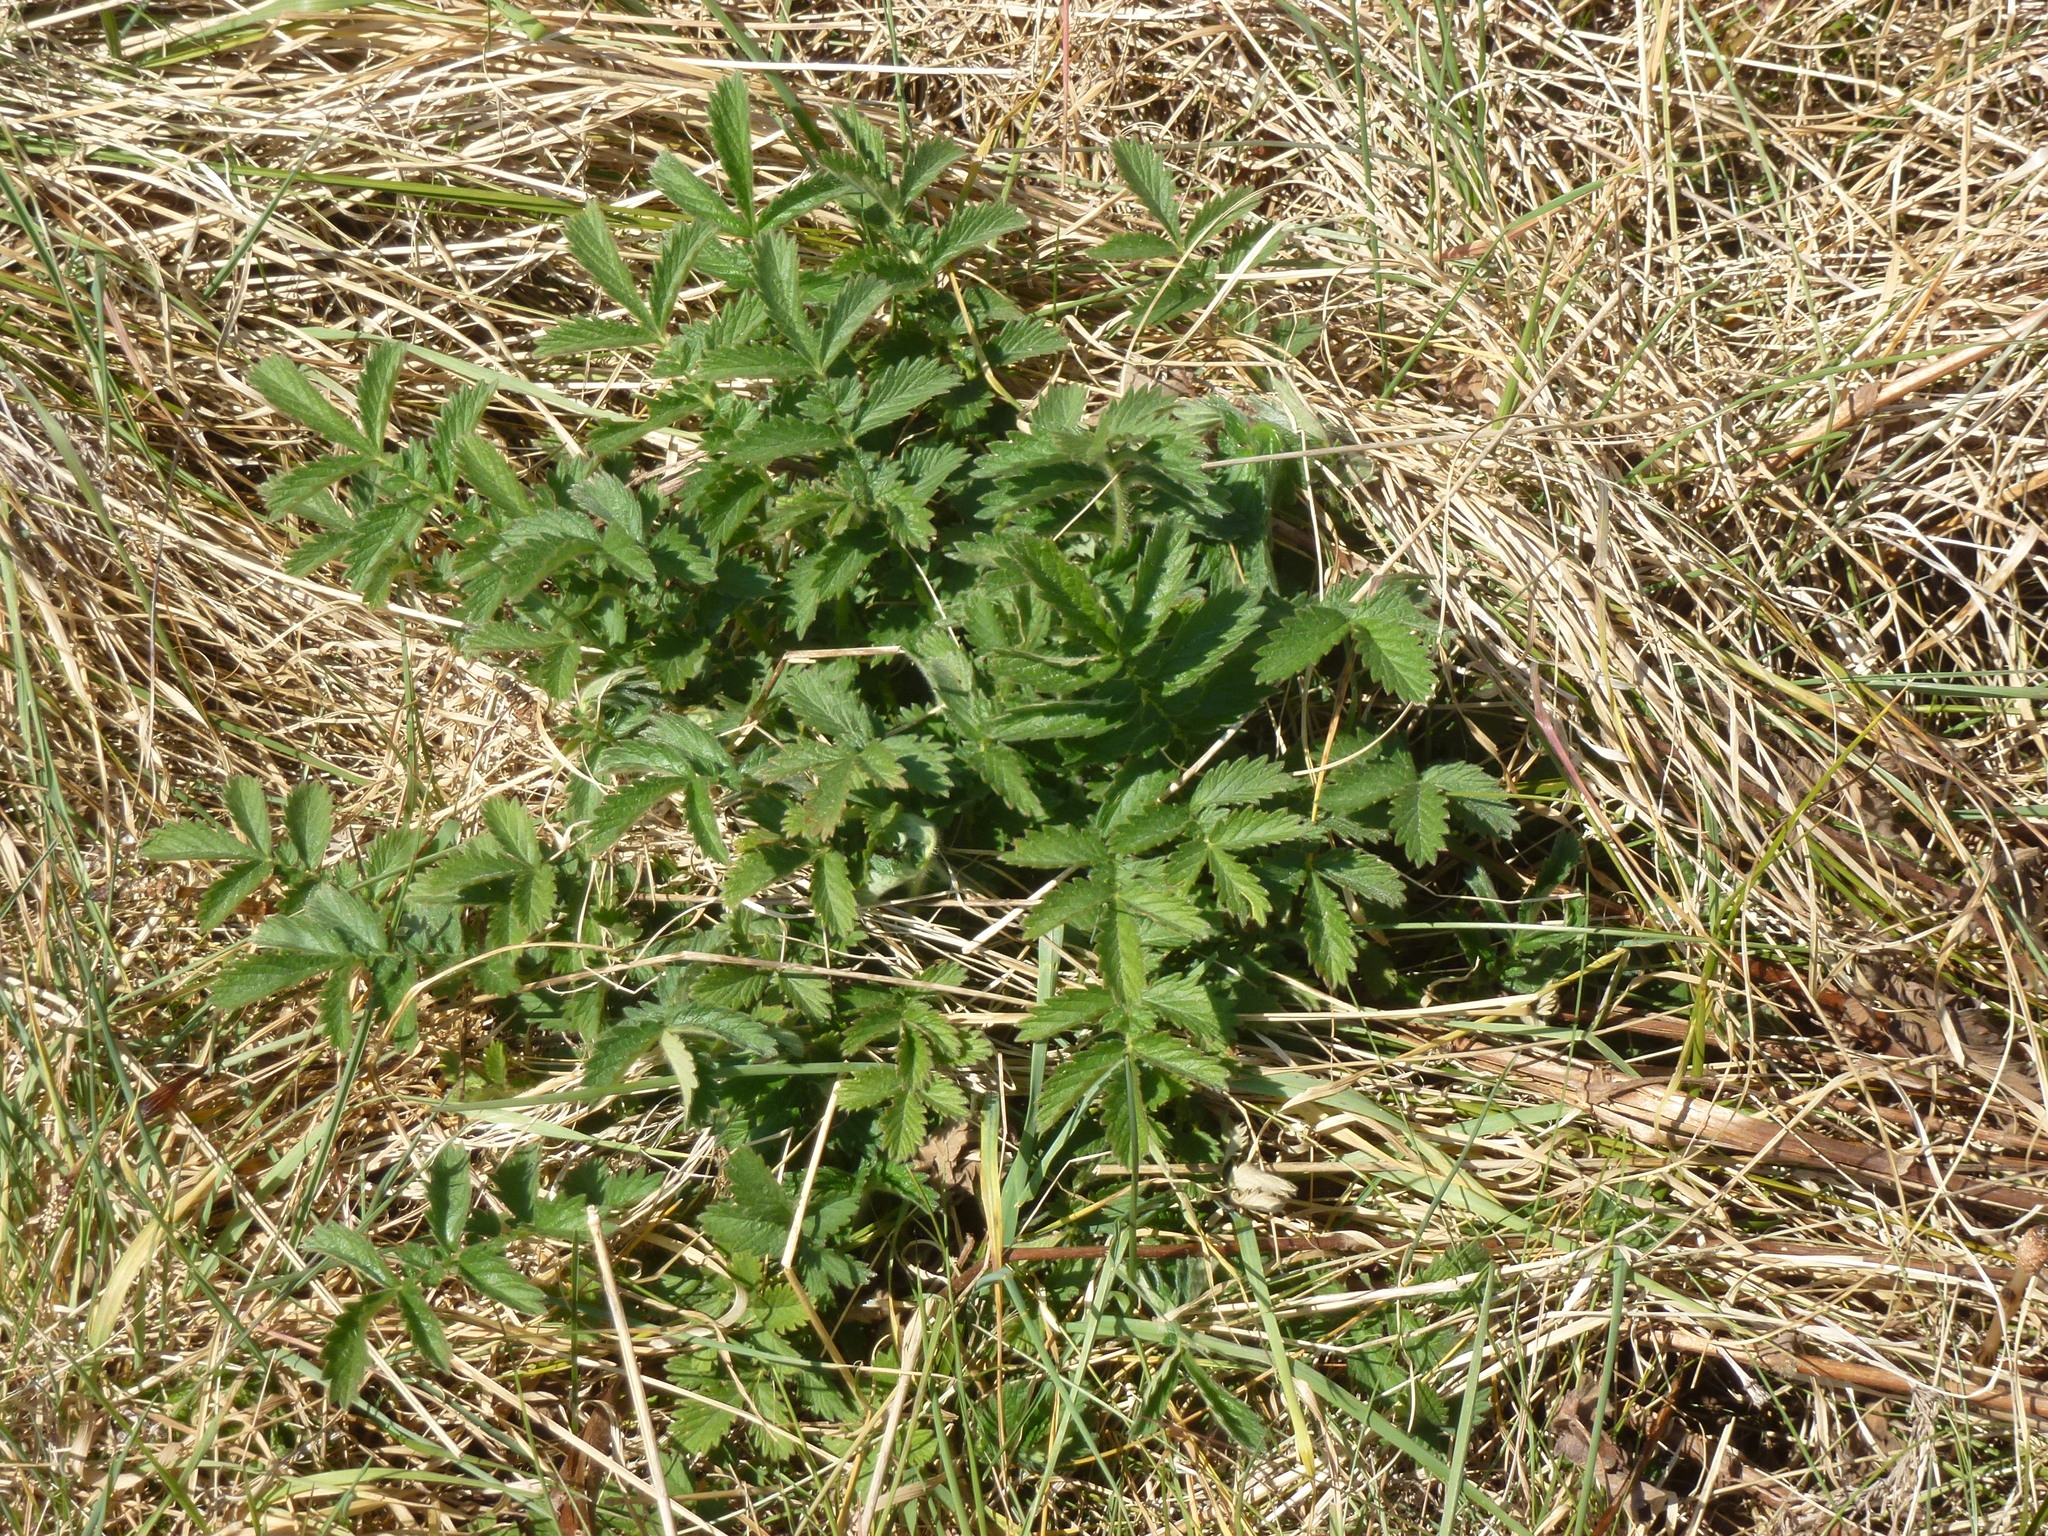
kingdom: Plantae
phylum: Tracheophyta
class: Magnoliopsida
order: Rosales
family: Rosaceae
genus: Agrimonia
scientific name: Agrimonia eupatoria
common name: Agrimony
